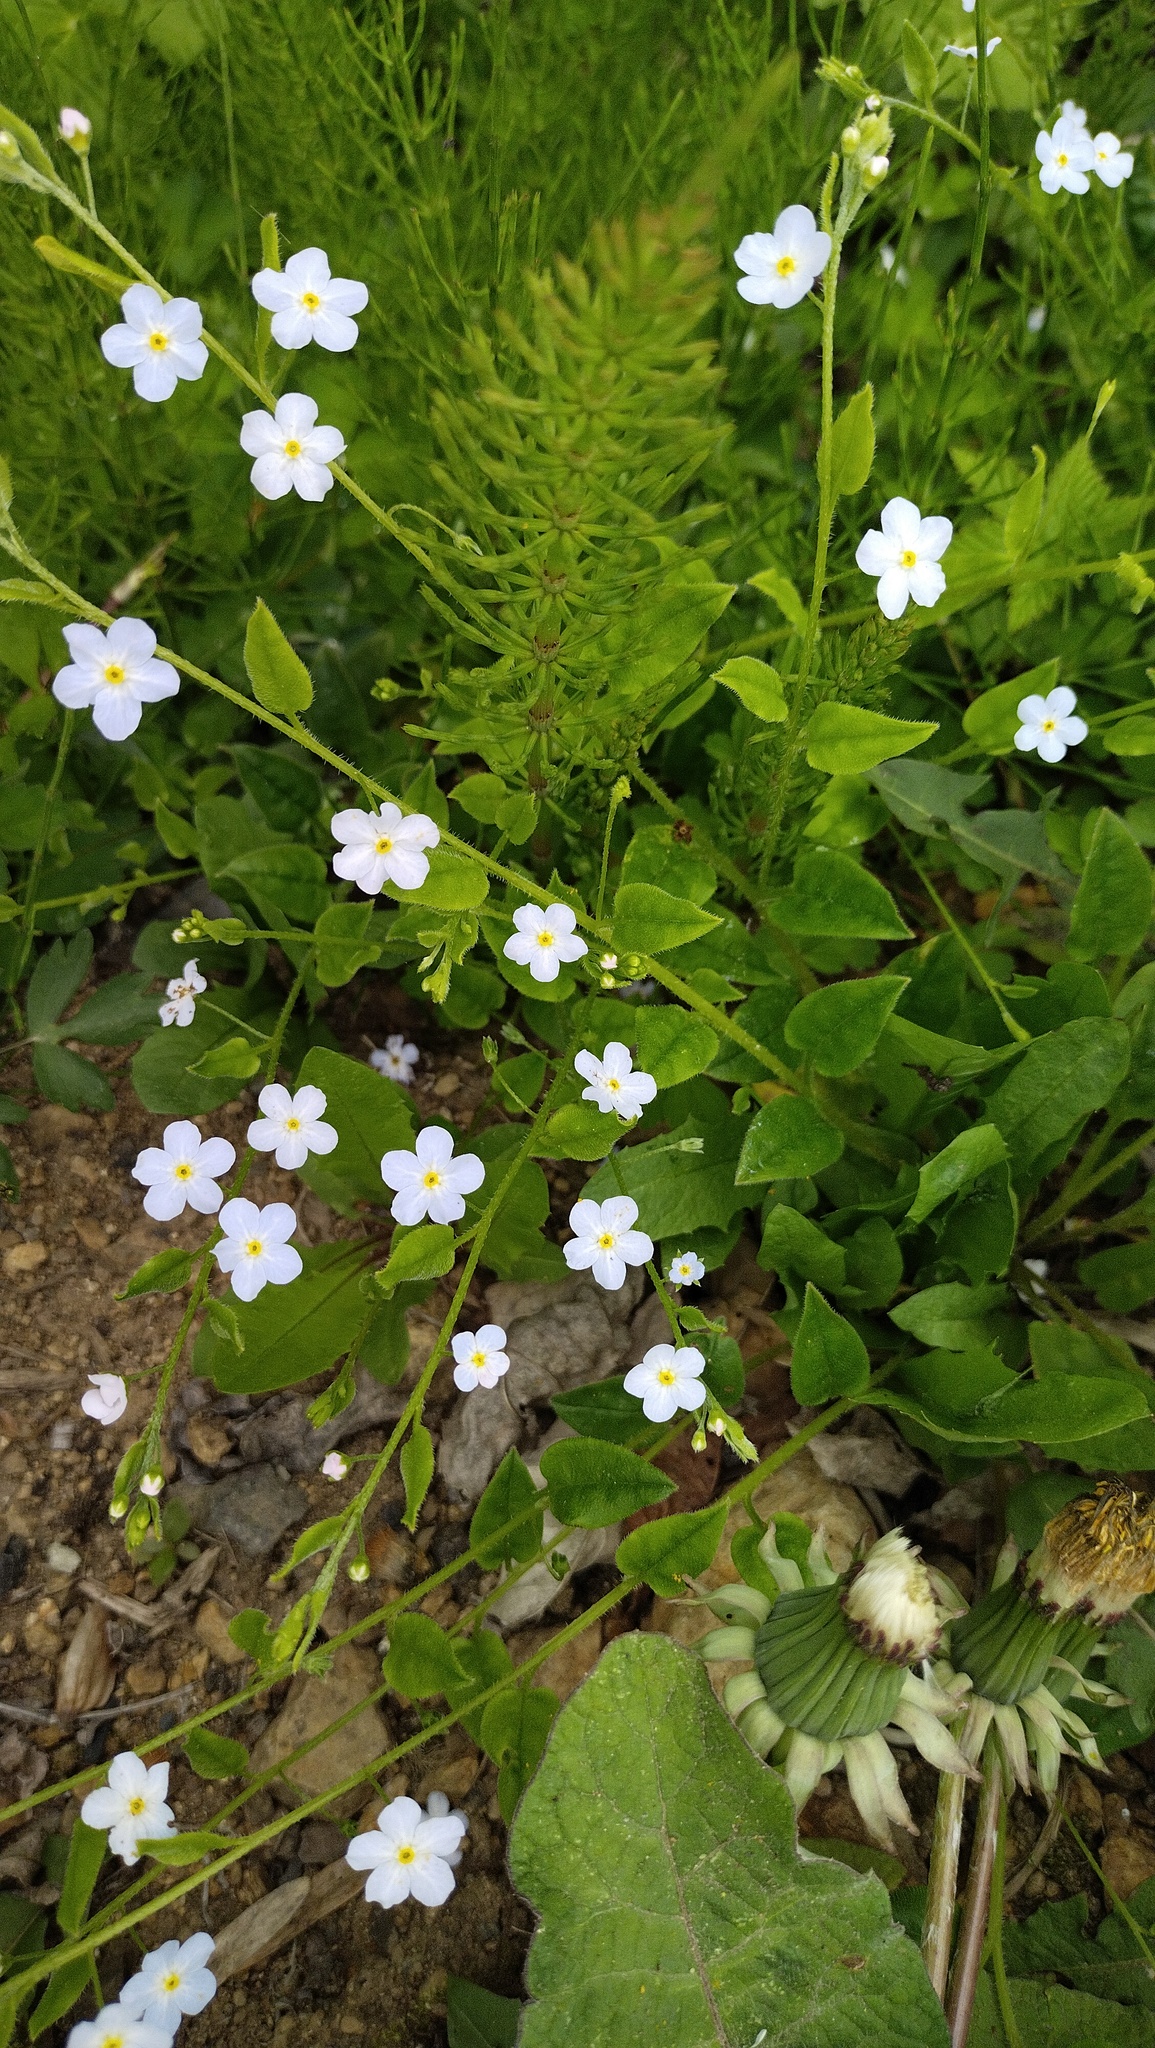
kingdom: Plantae
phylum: Tracheophyta
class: Magnoliopsida
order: Boraginales
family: Boraginaceae
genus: Trigonotis
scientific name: Trigonotis radicans
